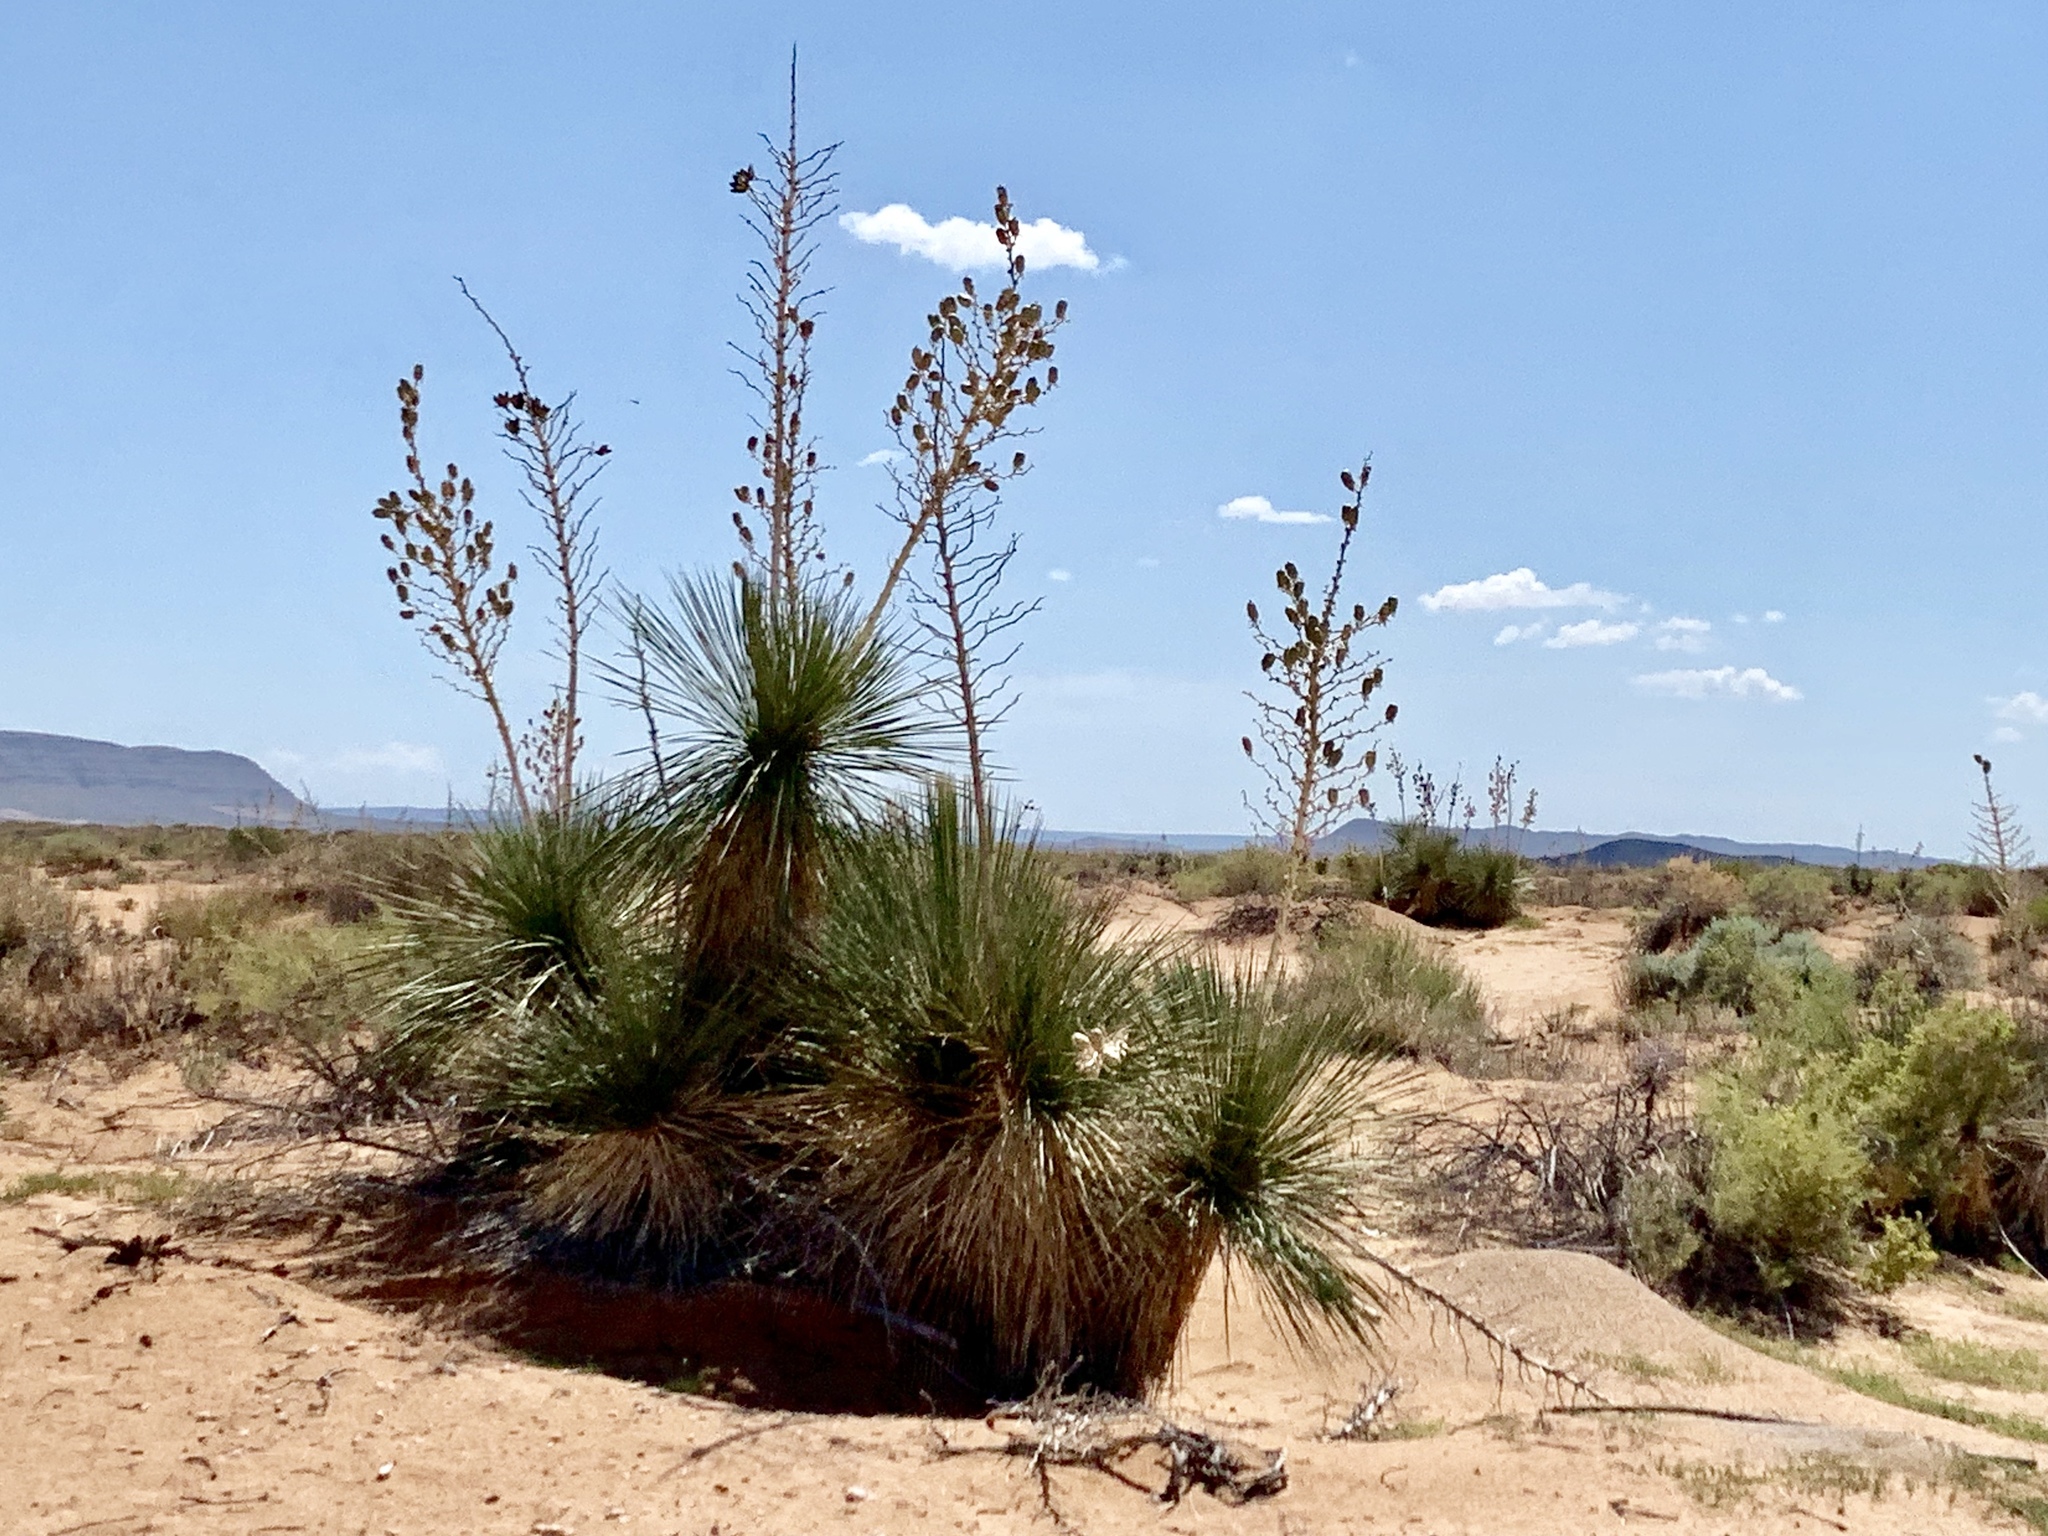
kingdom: Plantae
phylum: Tracheophyta
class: Liliopsida
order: Asparagales
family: Asparagaceae
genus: Yucca
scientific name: Yucca elata
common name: Palmella
